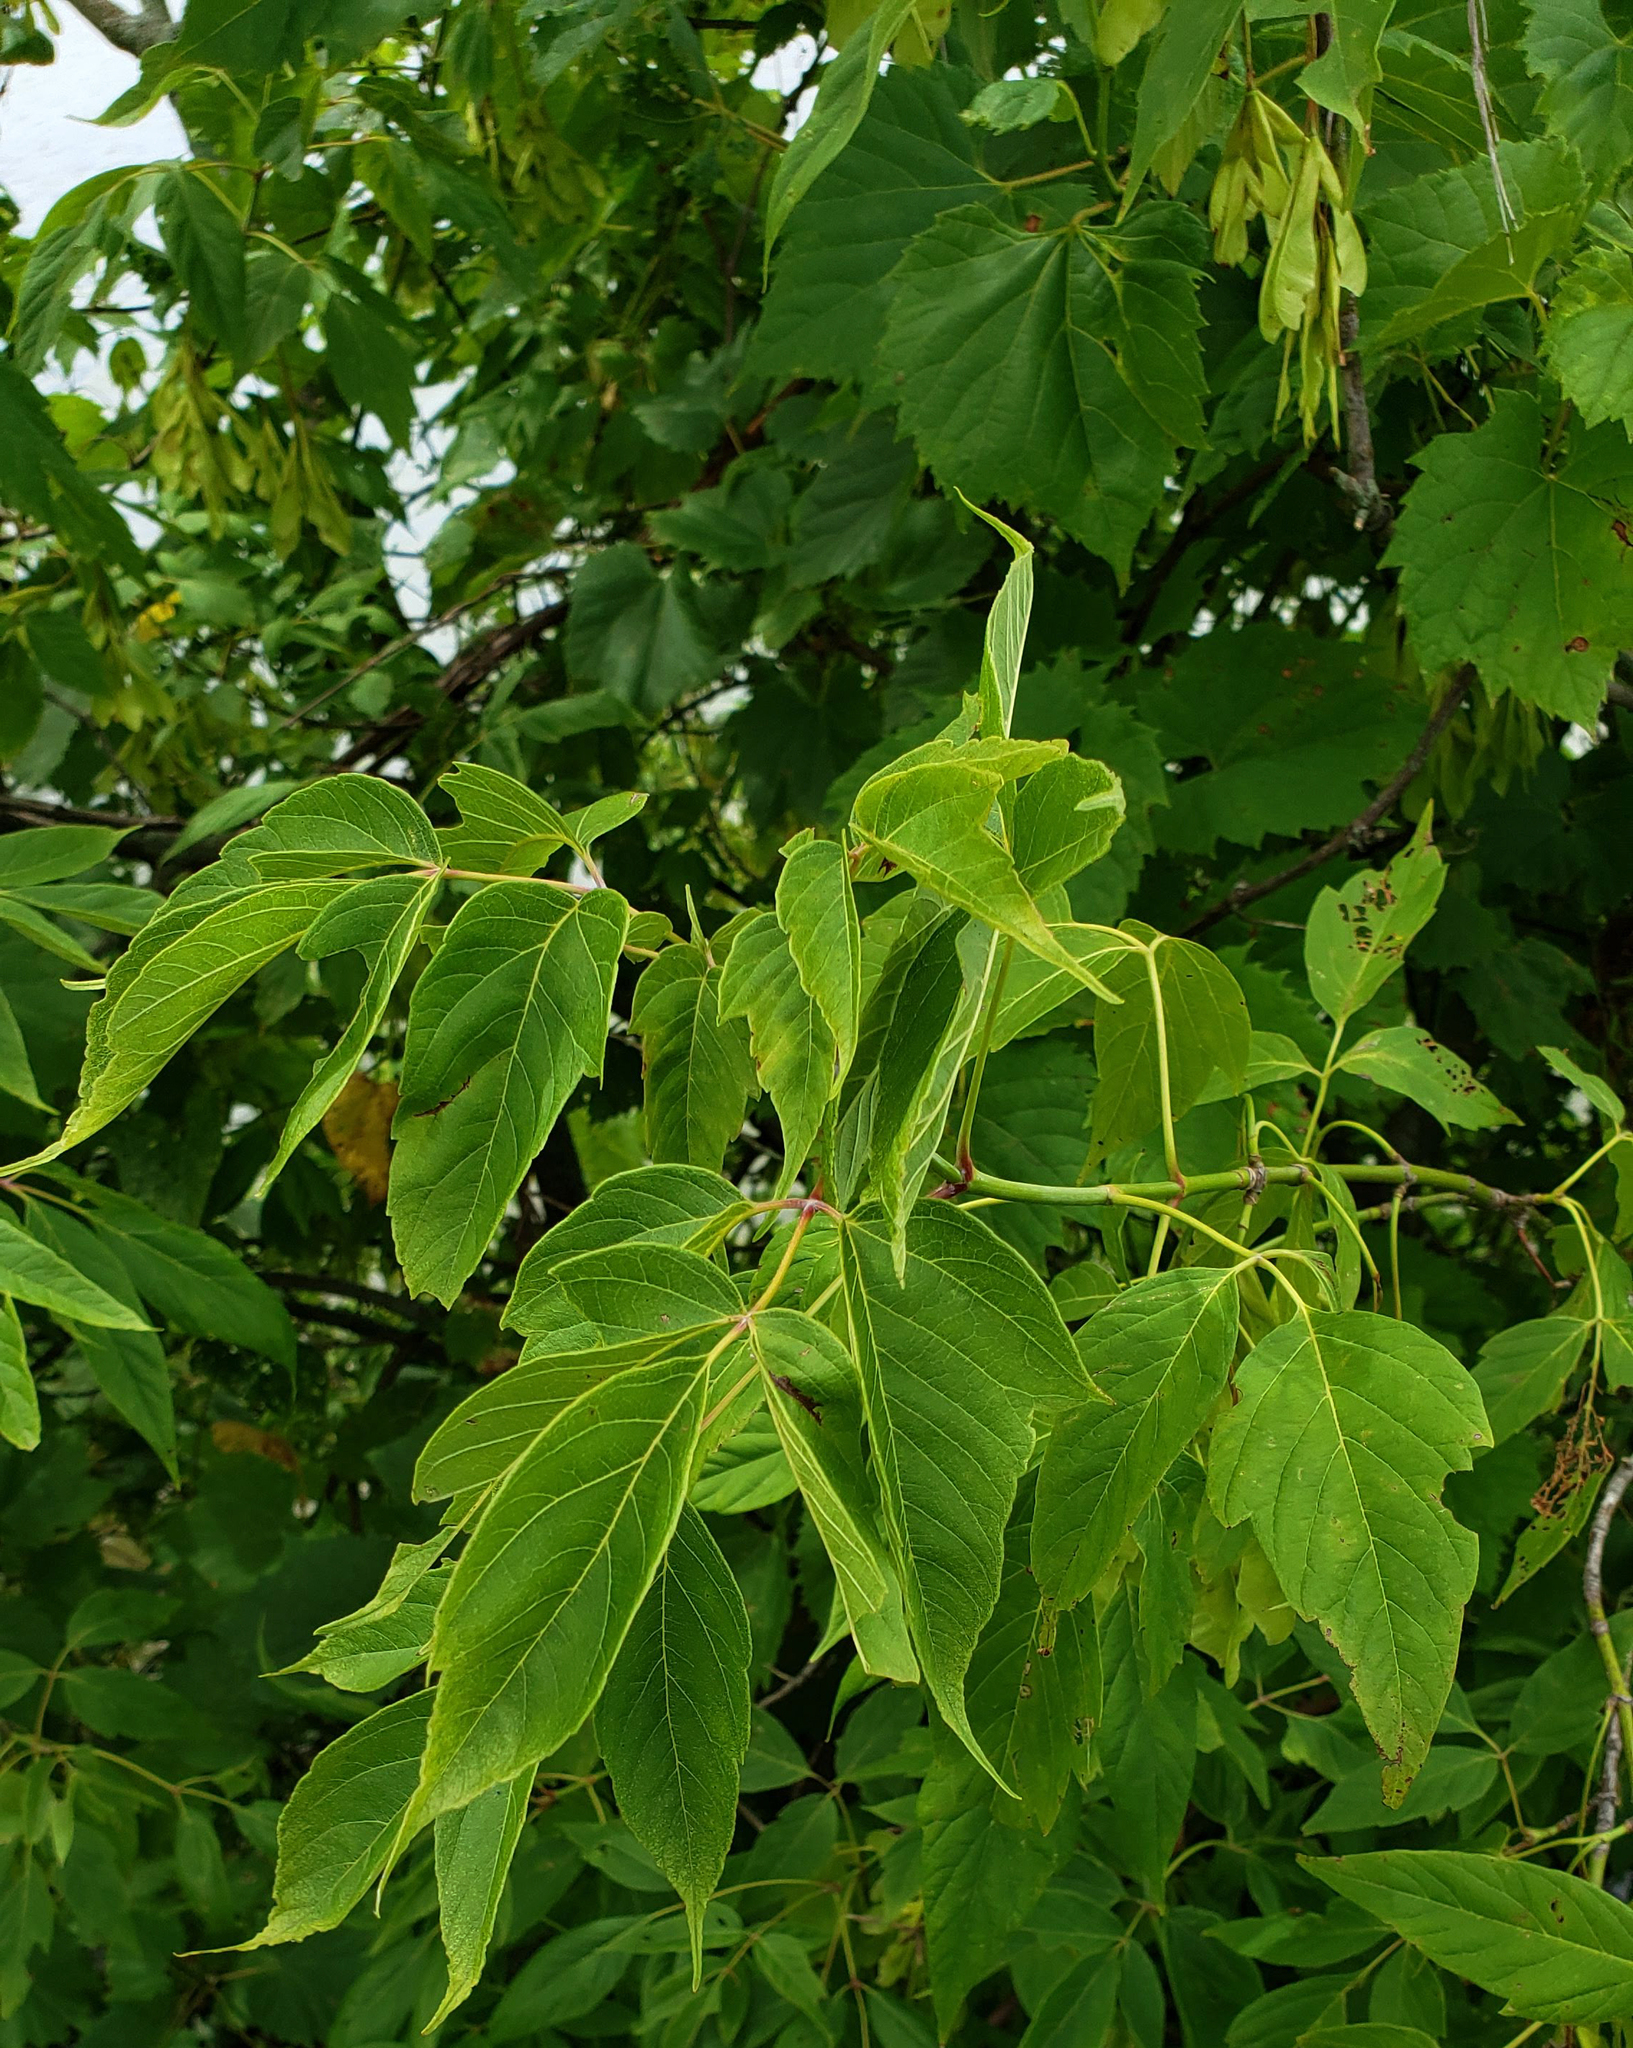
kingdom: Plantae
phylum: Tracheophyta
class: Magnoliopsida
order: Sapindales
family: Sapindaceae
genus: Acer
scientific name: Acer negundo
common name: Ashleaf maple
